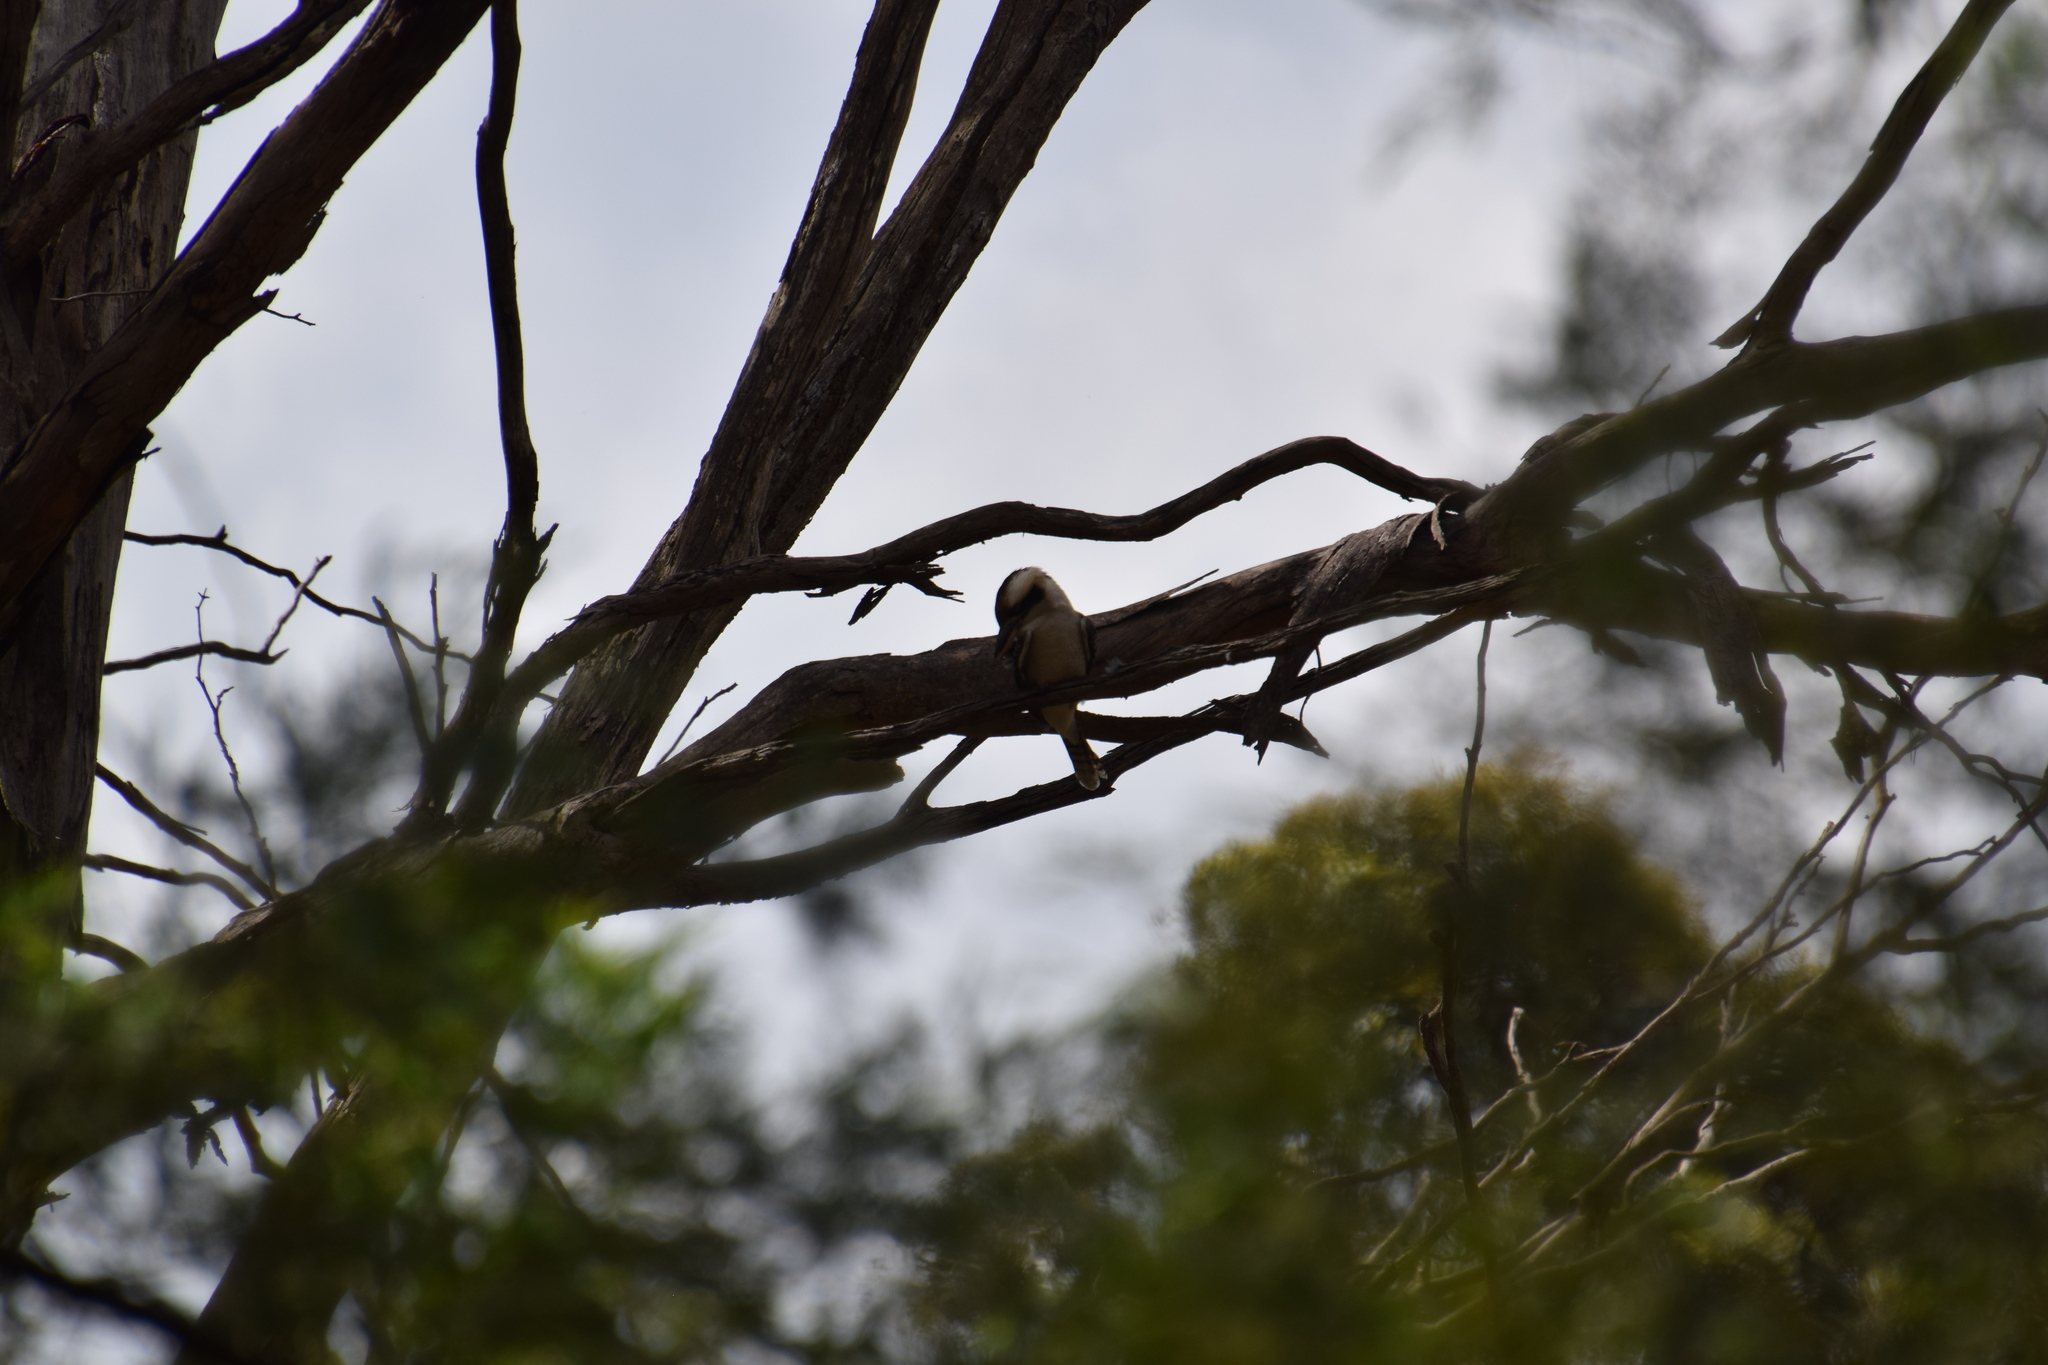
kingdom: Animalia
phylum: Chordata
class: Aves
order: Coraciiformes
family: Alcedinidae
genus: Dacelo
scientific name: Dacelo novaeguineae
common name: Laughing kookaburra
